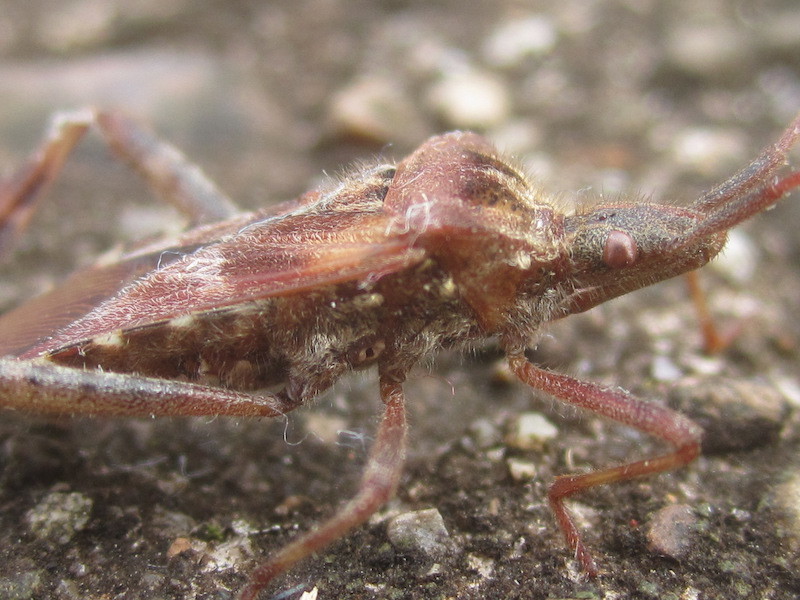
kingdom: Animalia
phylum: Arthropoda
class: Insecta
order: Hemiptera
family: Coreidae
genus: Leptoglossus
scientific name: Leptoglossus occidentalis
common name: Western conifer-seed bug
